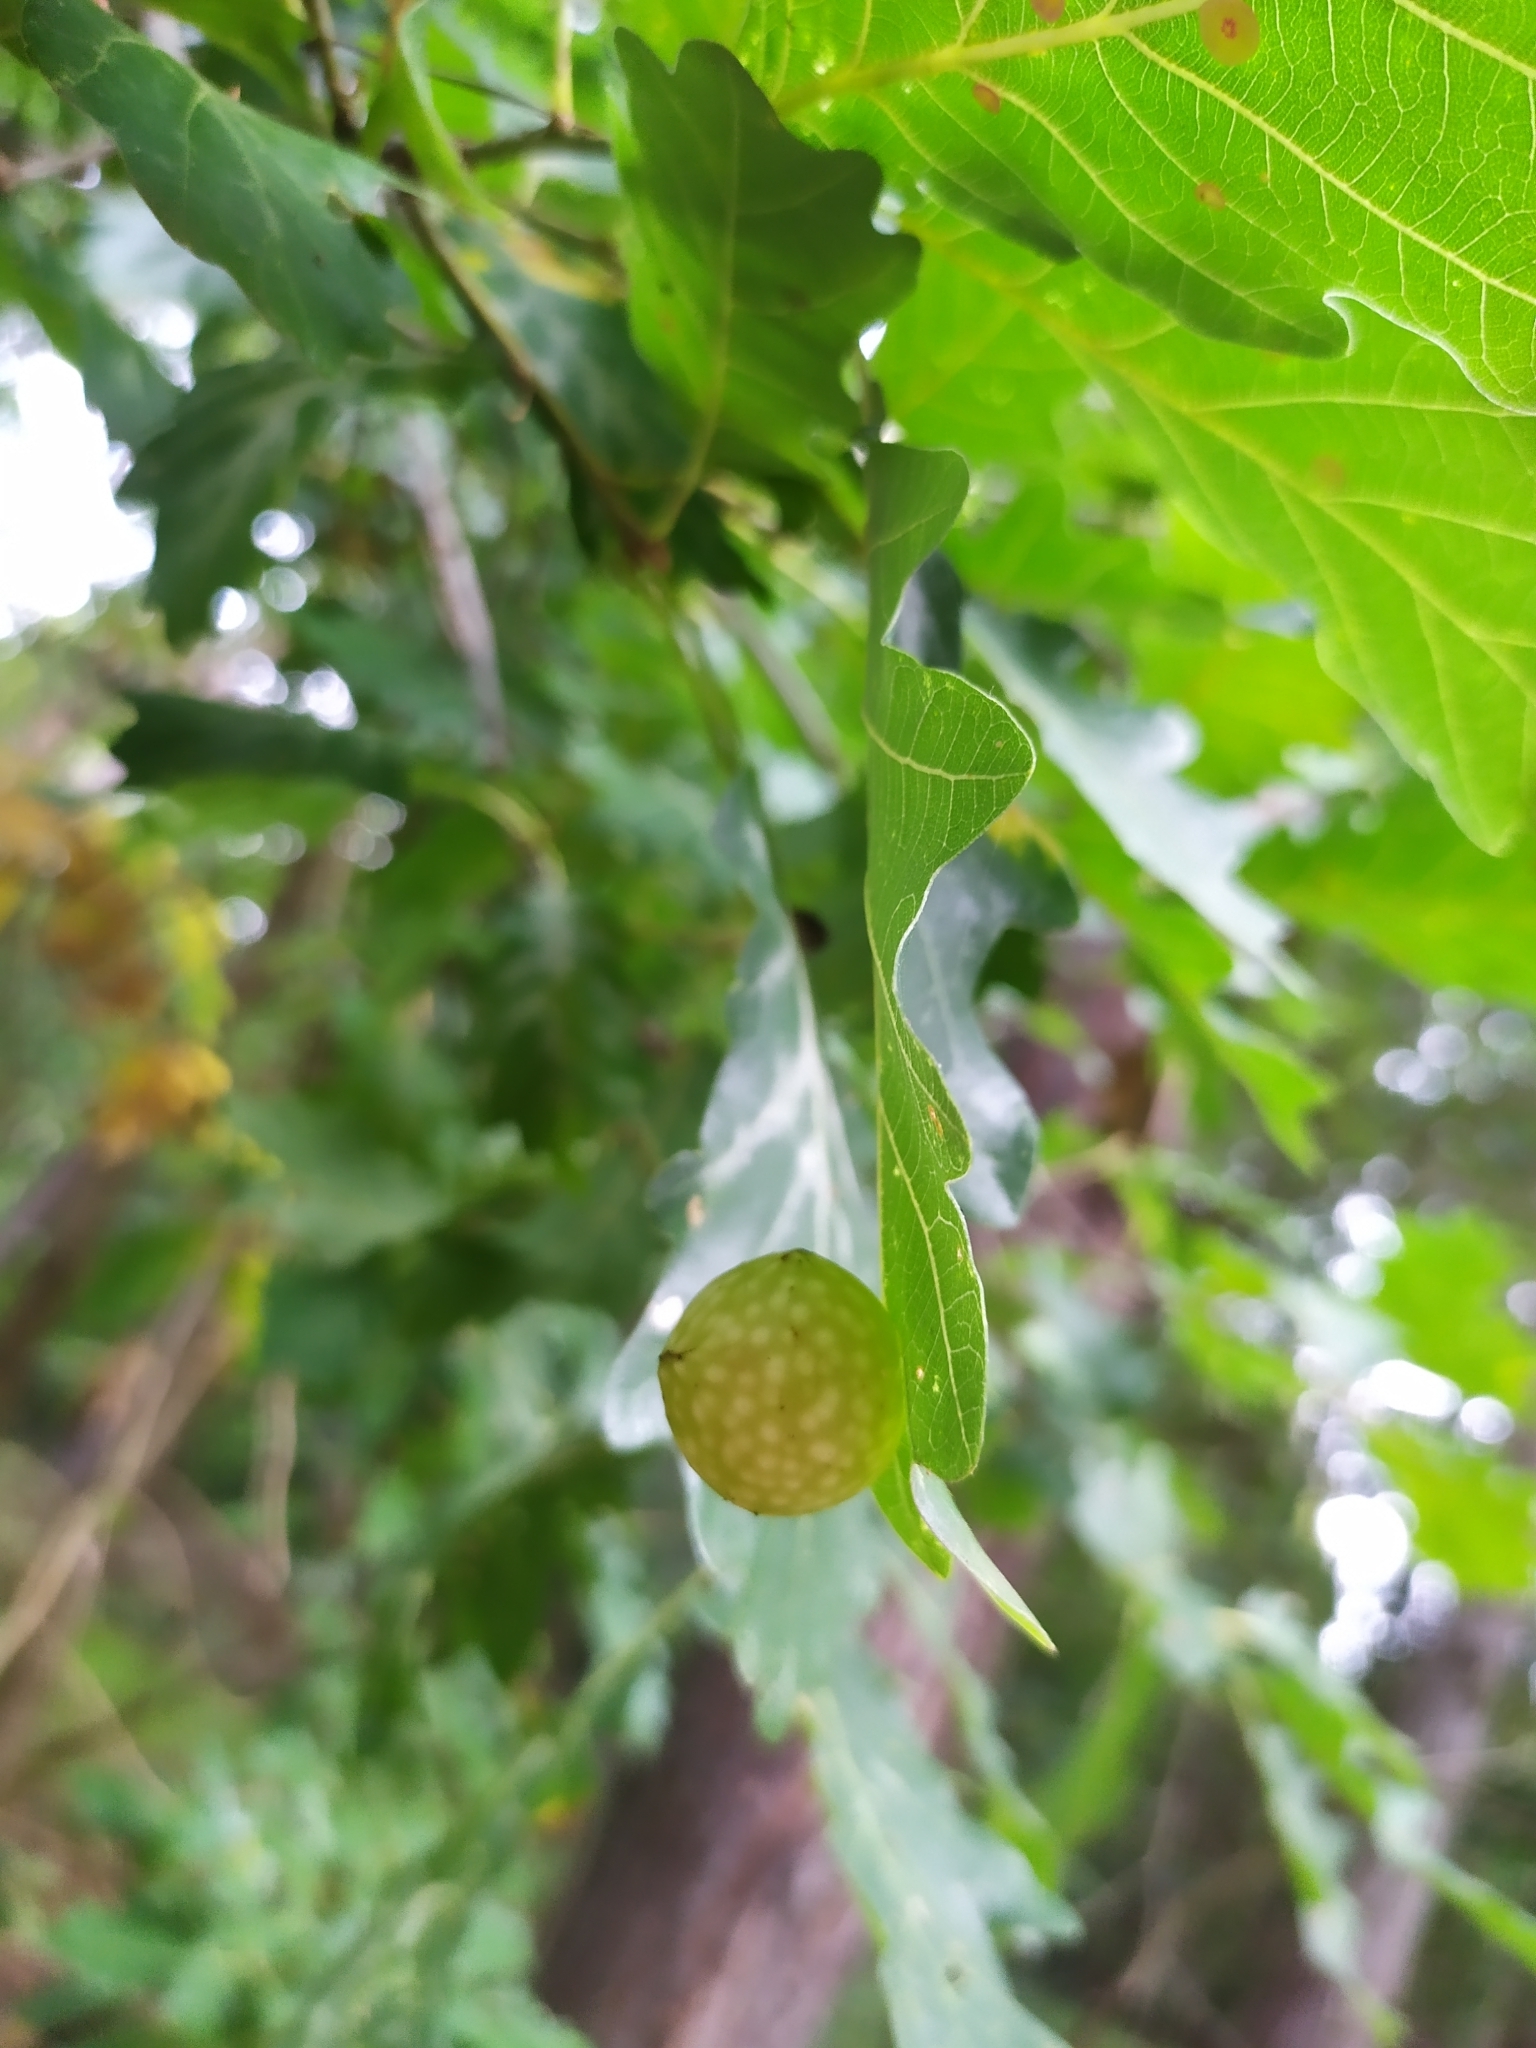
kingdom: Animalia
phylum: Arthropoda
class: Insecta
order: Hymenoptera
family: Cynipidae
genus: Cynips
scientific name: Cynips quercusfolii
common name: Cherry gall
